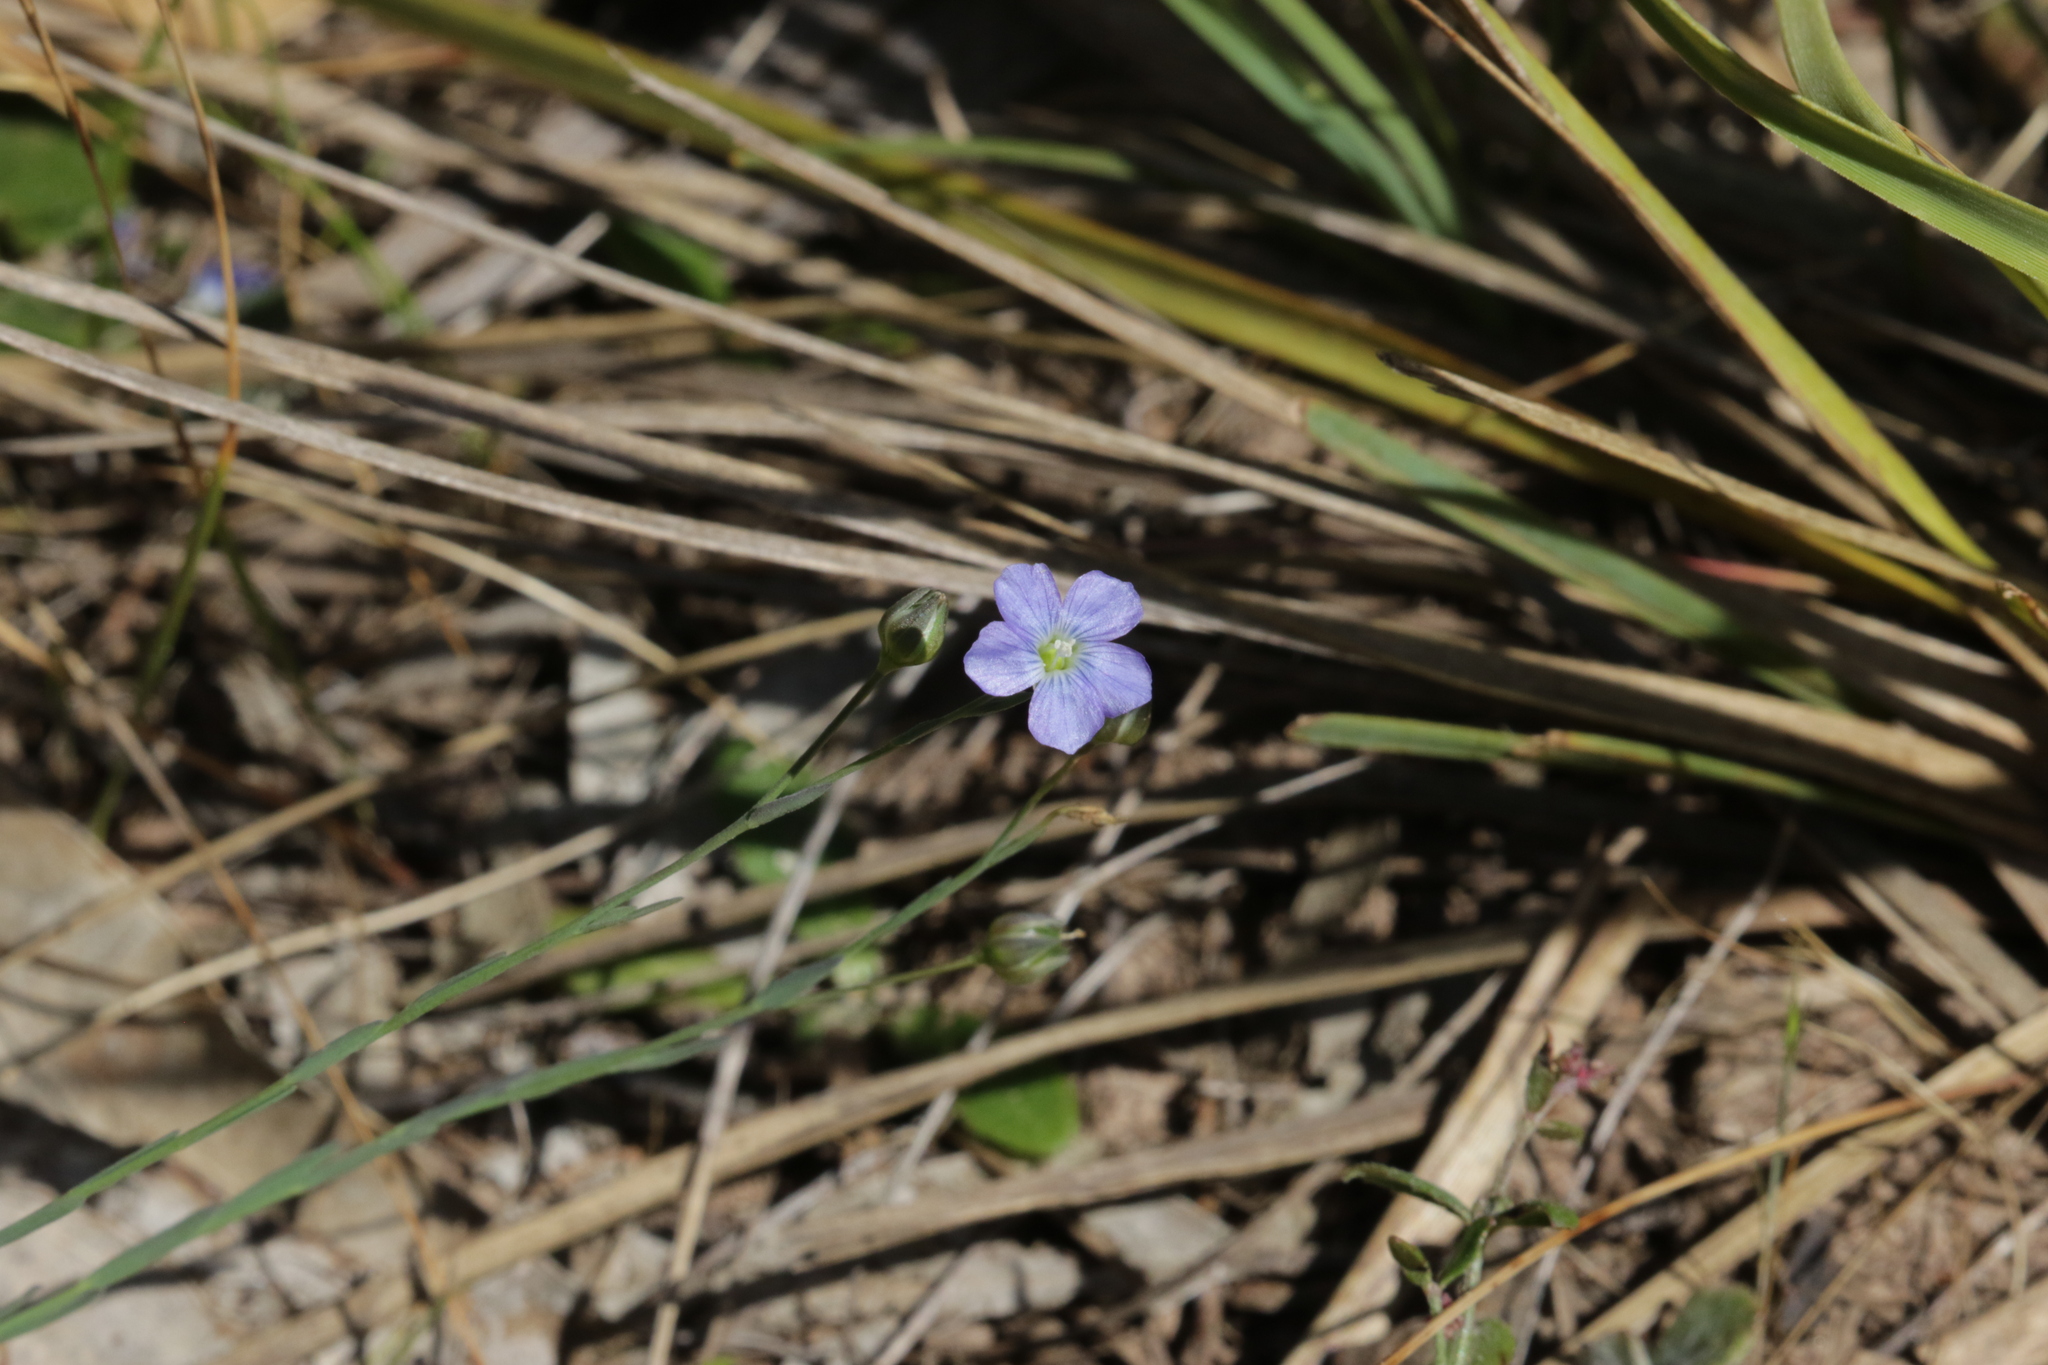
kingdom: Plantae
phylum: Tracheophyta
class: Magnoliopsida
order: Malpighiales
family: Linaceae
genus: Linum
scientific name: Linum marginale
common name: Wild flax
